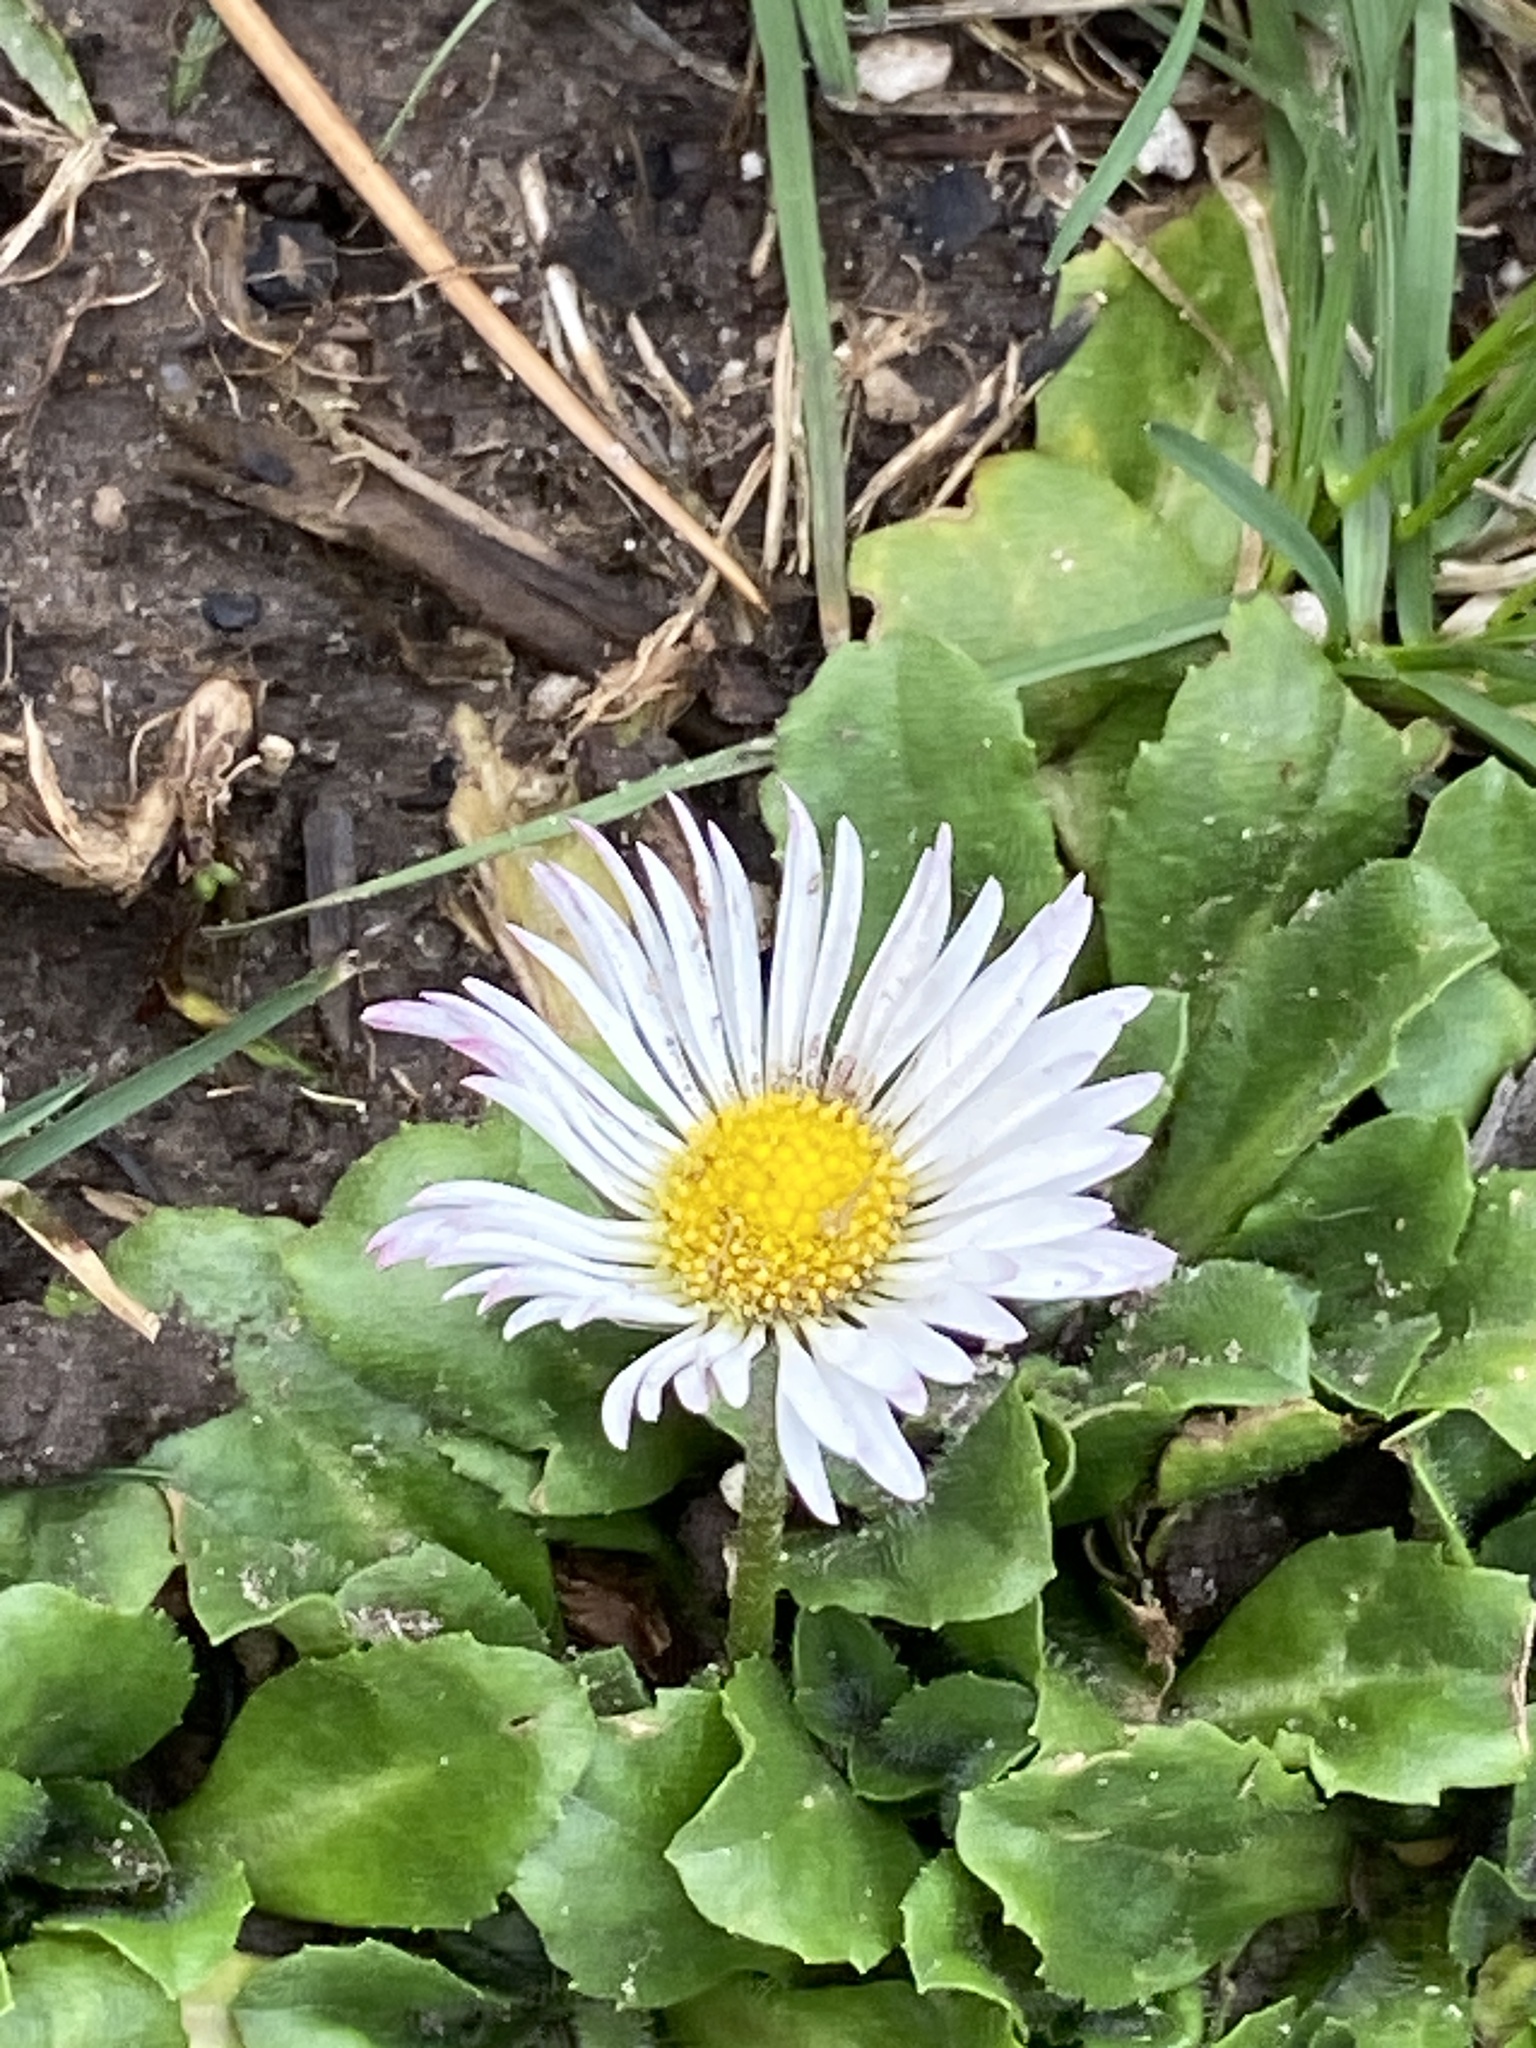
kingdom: Plantae
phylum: Tracheophyta
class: Magnoliopsida
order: Asterales
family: Asteraceae
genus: Bellis
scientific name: Bellis perennis
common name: Lawndaisy
